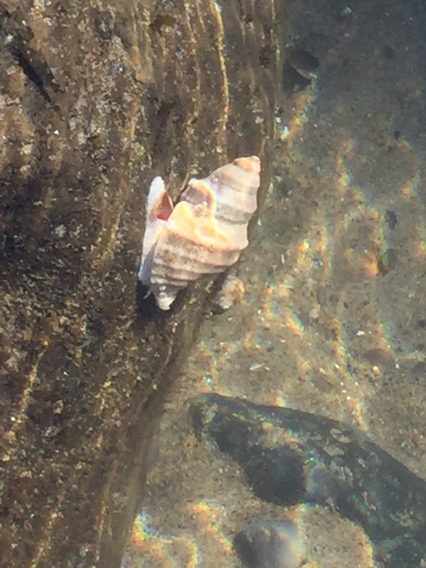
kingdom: Animalia
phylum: Mollusca
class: Gastropoda
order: Neogastropoda
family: Muricidae
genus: Nucella
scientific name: Nucella lamellosa
